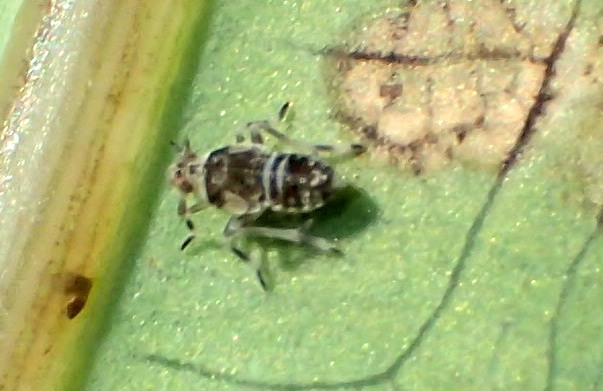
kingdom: Animalia
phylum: Arthropoda
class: Insecta
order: Hemiptera
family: Delphacidae
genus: Tarophagus
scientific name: Tarophagus colocasiae
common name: Taro planthopper
